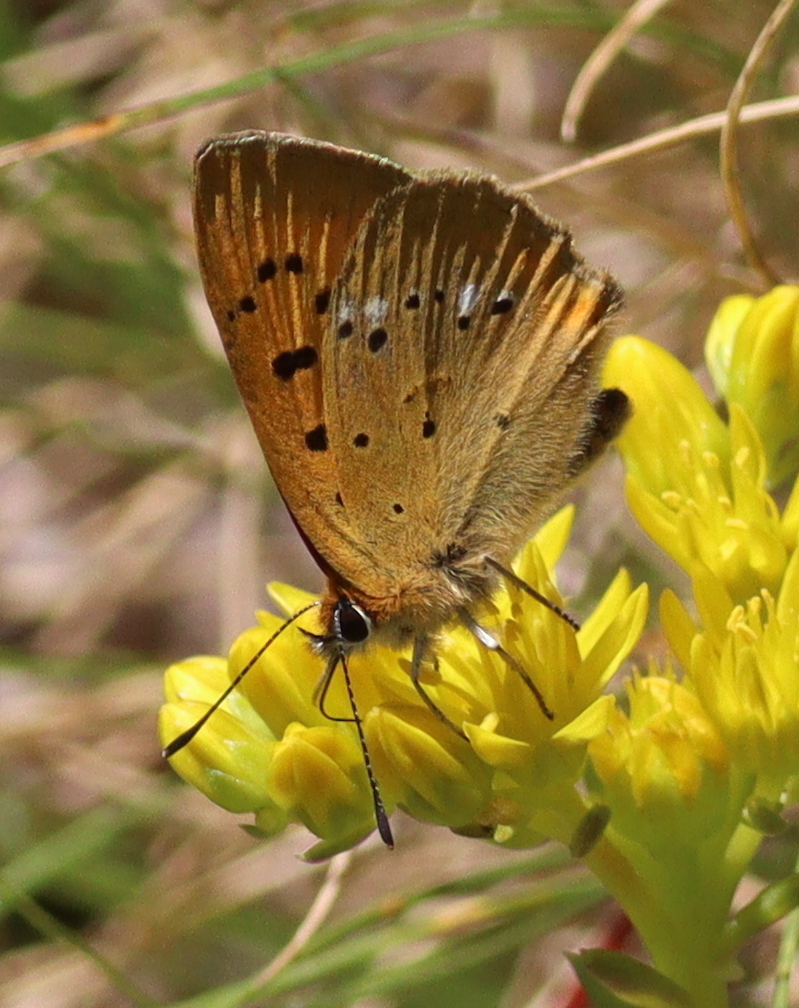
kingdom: Animalia
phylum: Arthropoda
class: Insecta
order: Lepidoptera
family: Lycaenidae
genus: Lycaena
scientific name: Lycaena virgaureae
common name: Scarce copper
